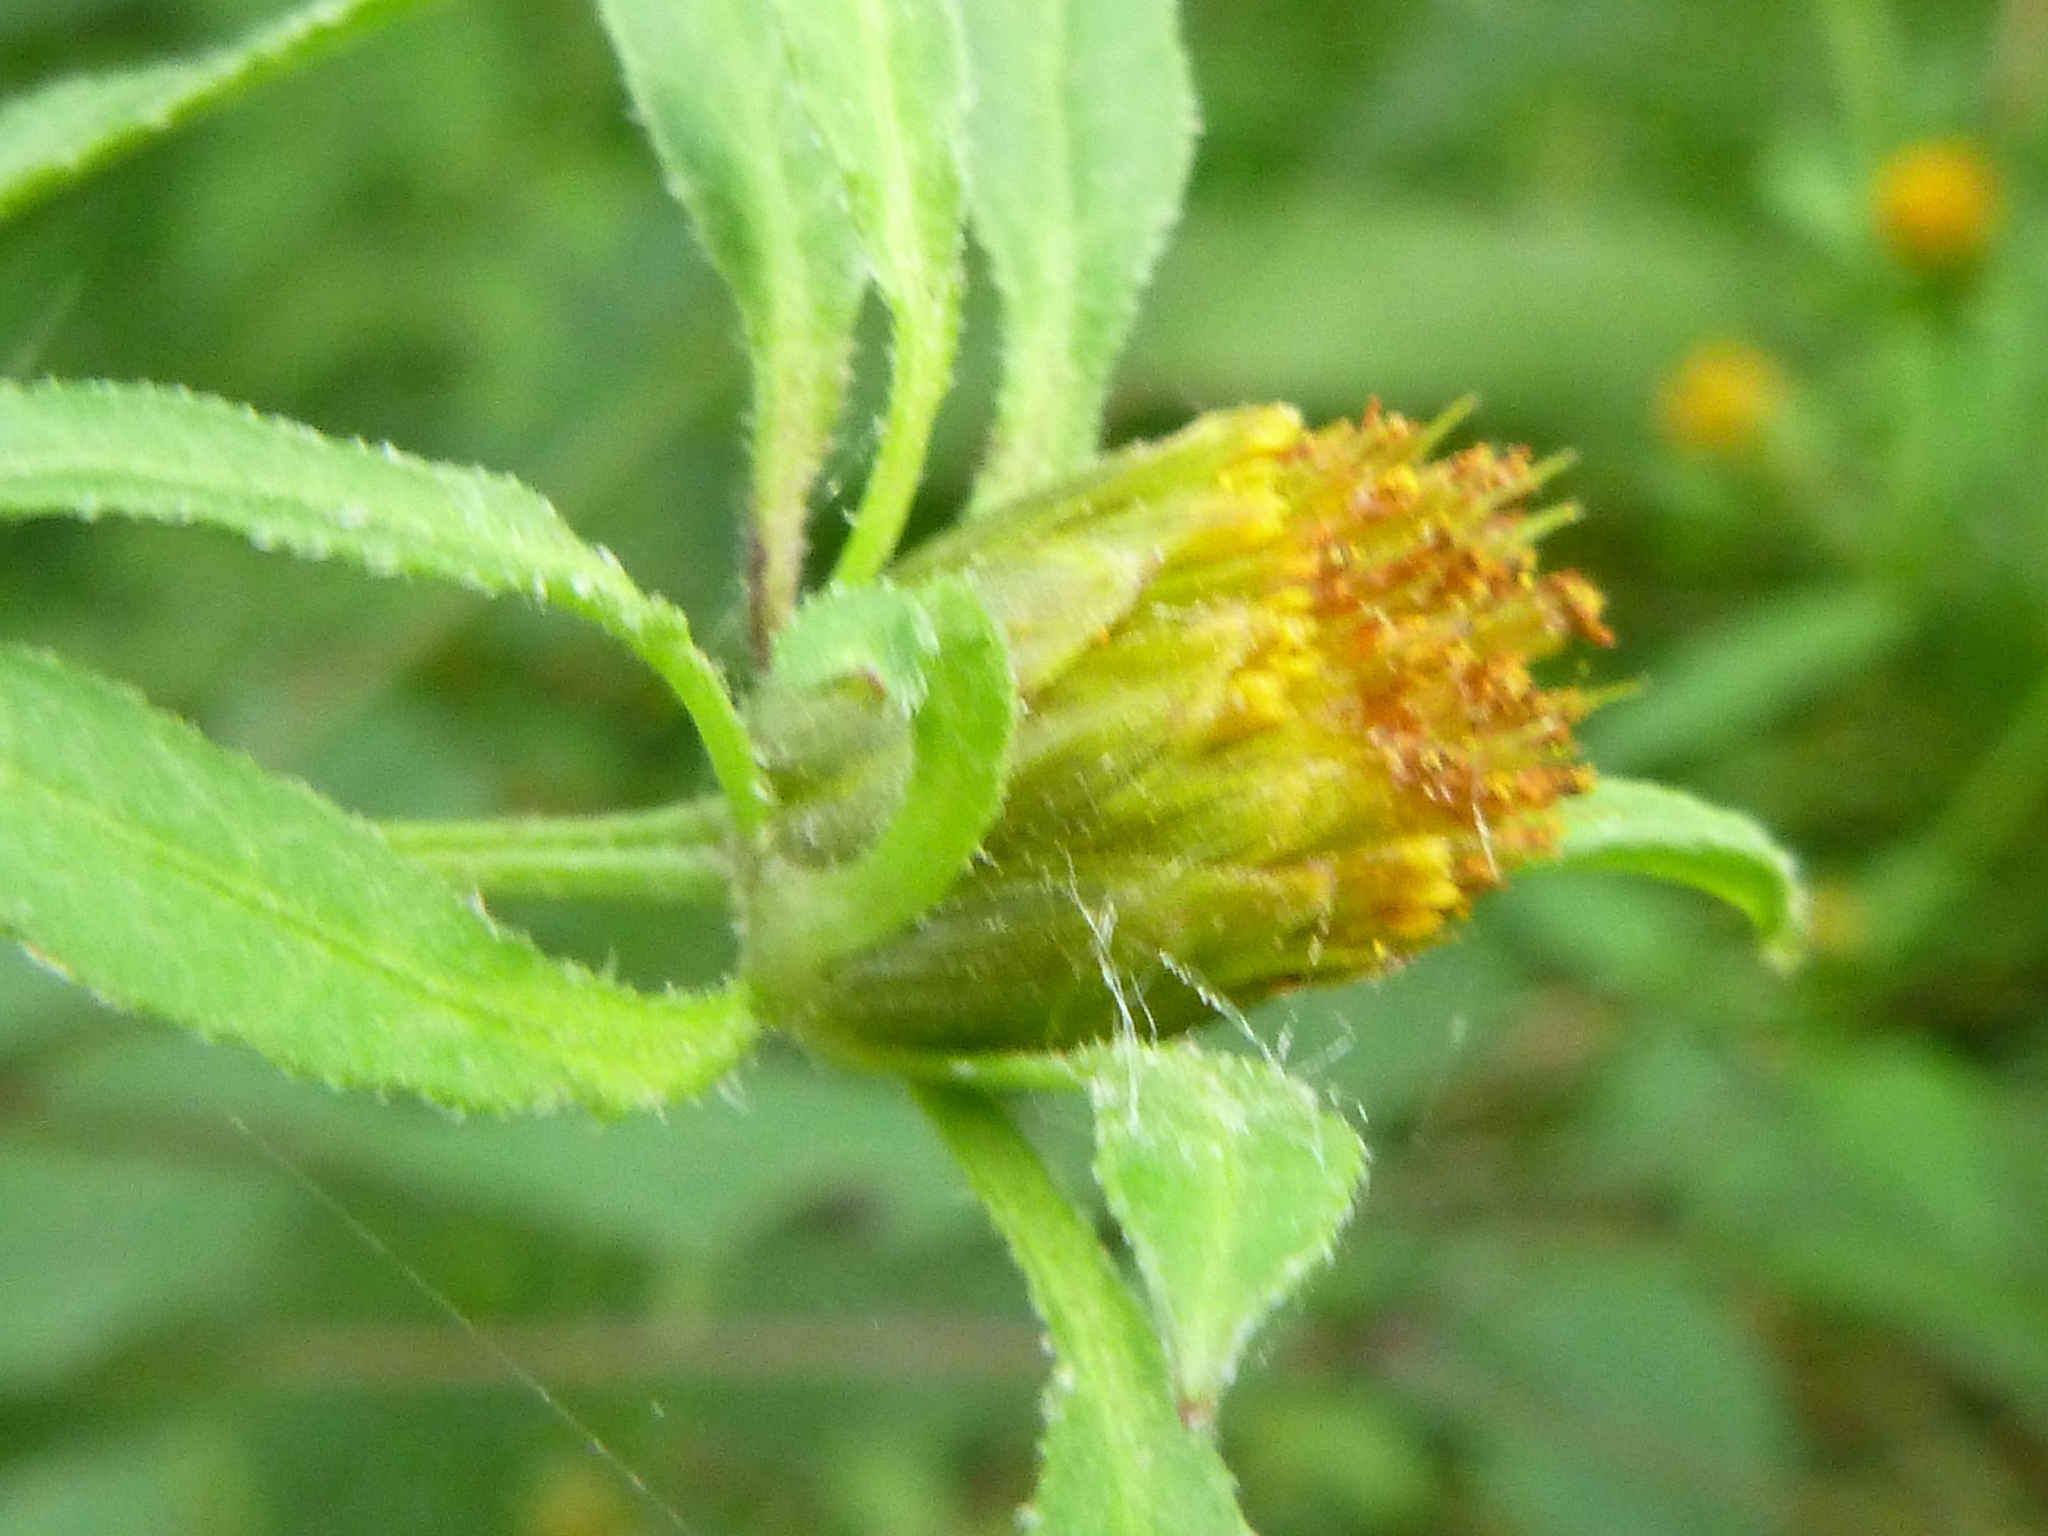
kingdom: Plantae
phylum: Tracheophyta
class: Magnoliopsida
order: Asterales
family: Asteraceae
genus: Bidens
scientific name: Bidens frondosa
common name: Beggarticks
